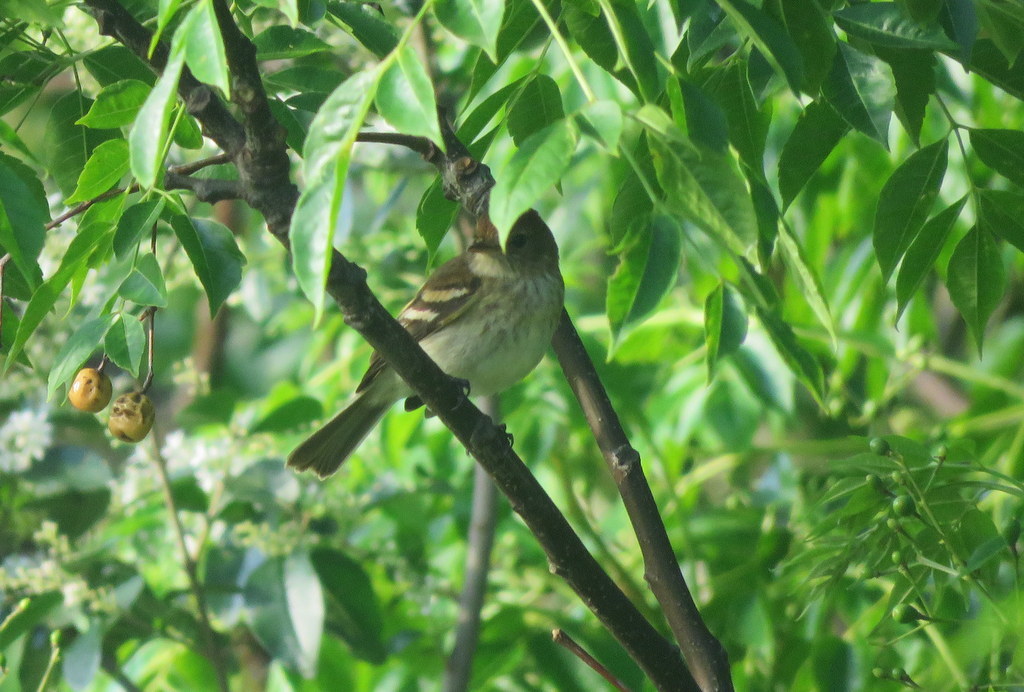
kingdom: Animalia
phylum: Chordata
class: Aves
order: Passeriformes
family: Tyrannidae
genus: Myiophobus
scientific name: Myiophobus fasciatus
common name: Bran-colored flycatcher
